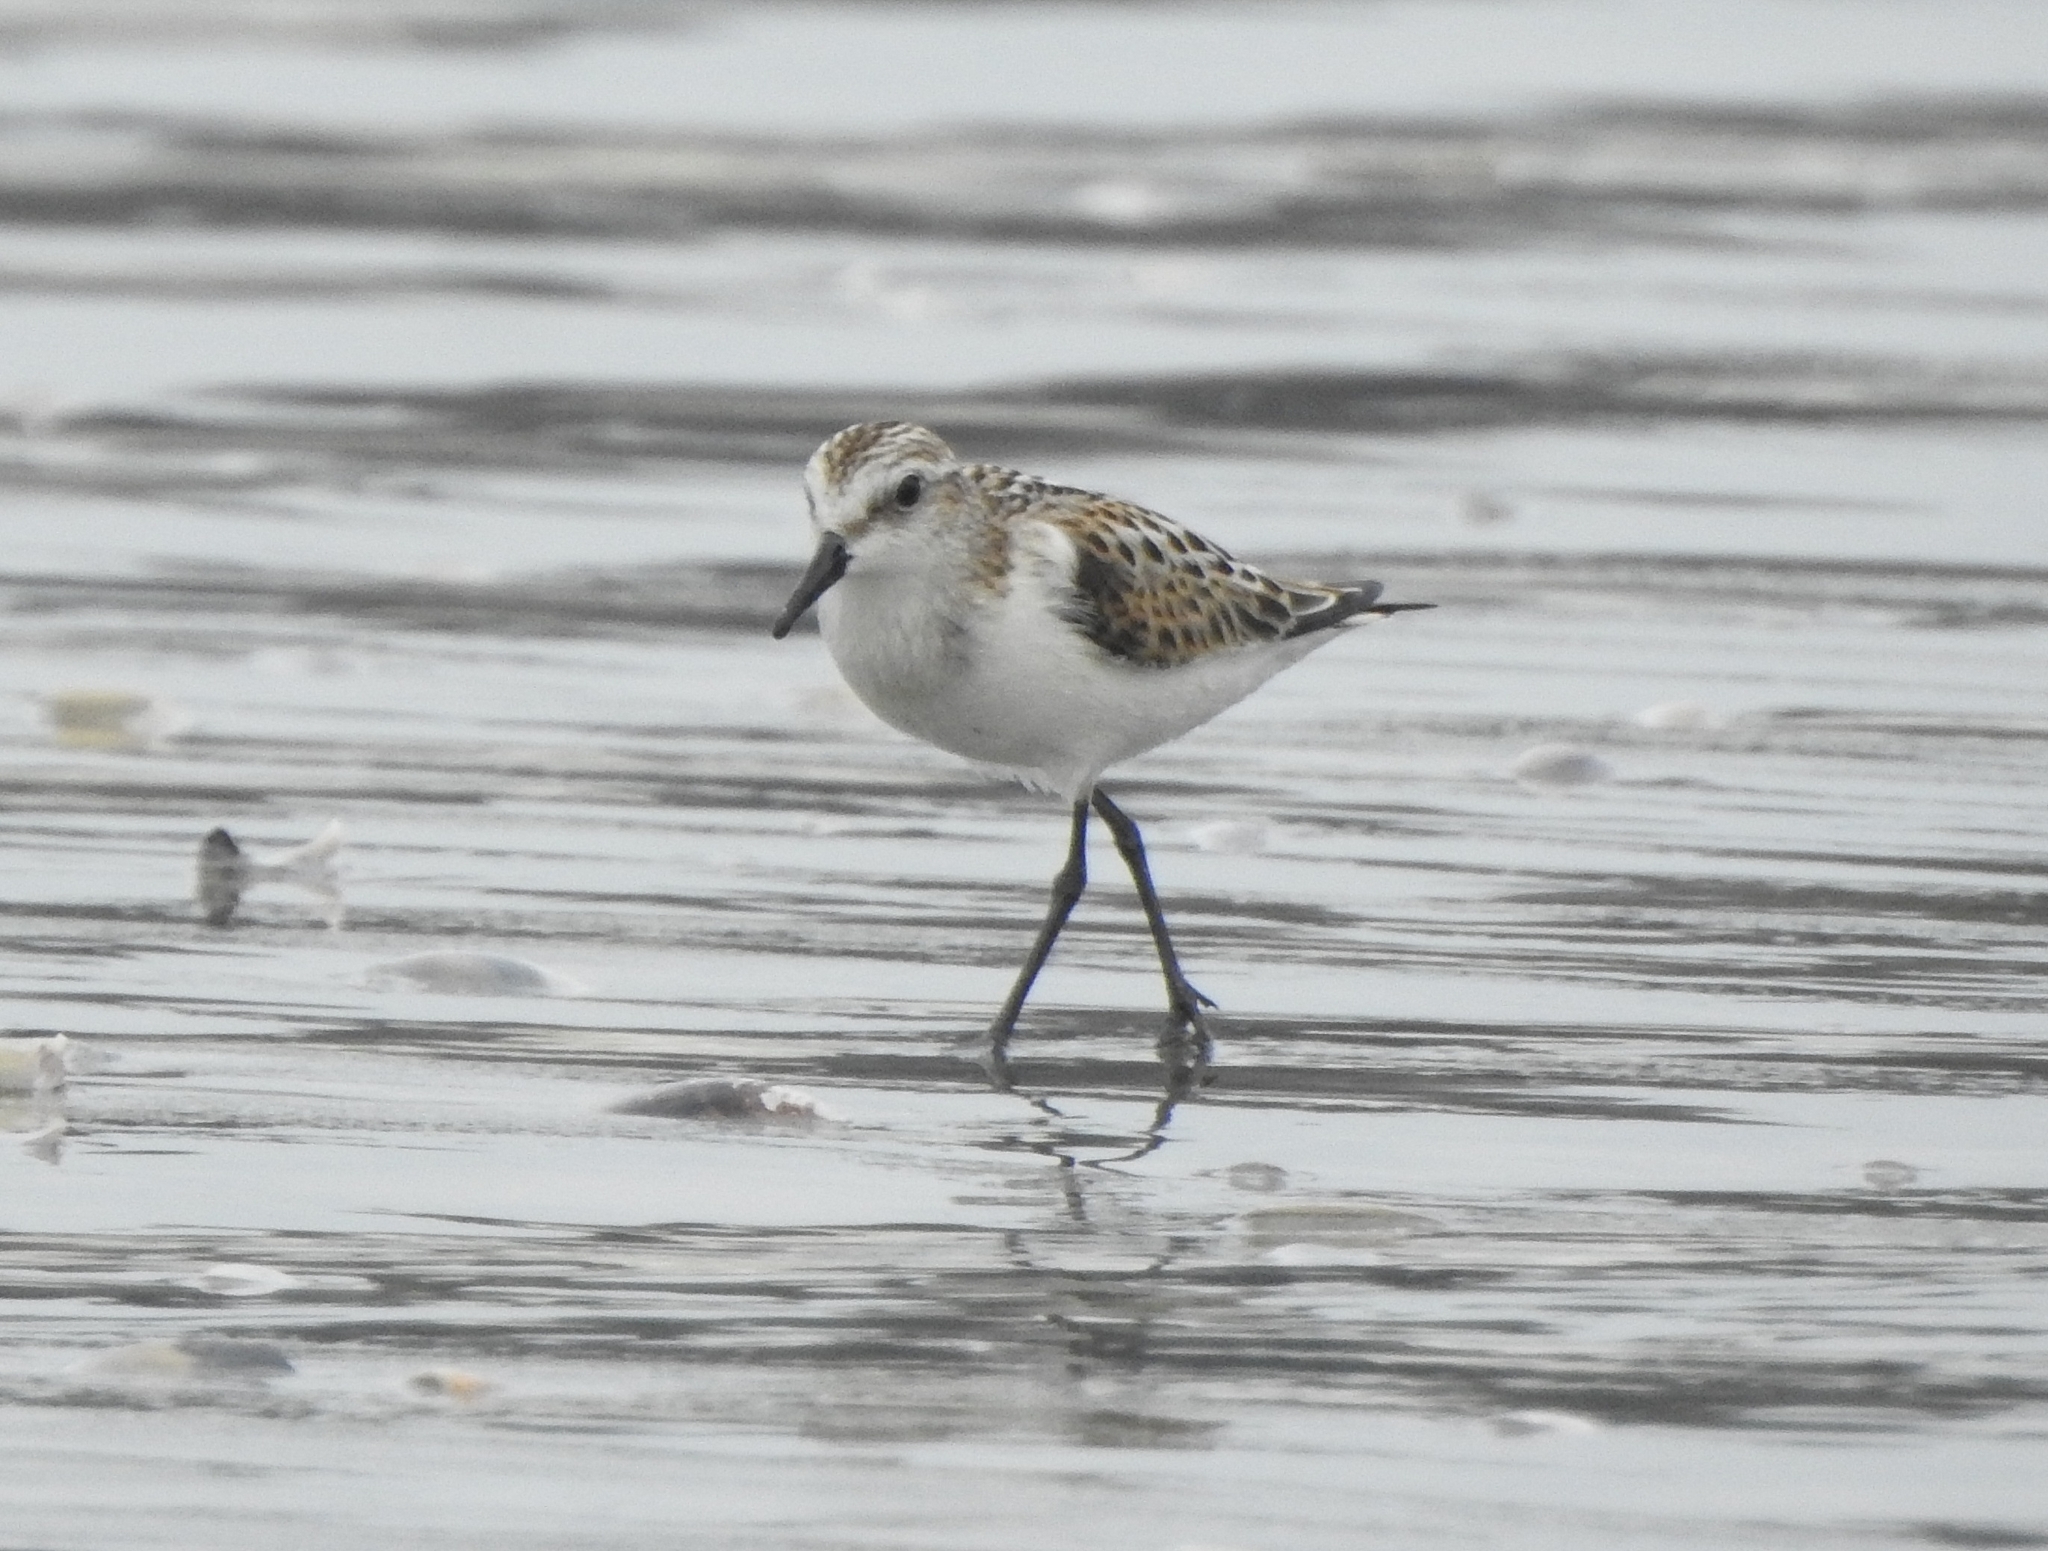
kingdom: Animalia
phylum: Chordata
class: Aves
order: Charadriiformes
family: Scolopacidae
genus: Calidris
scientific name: Calidris minuta
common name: Little stint
